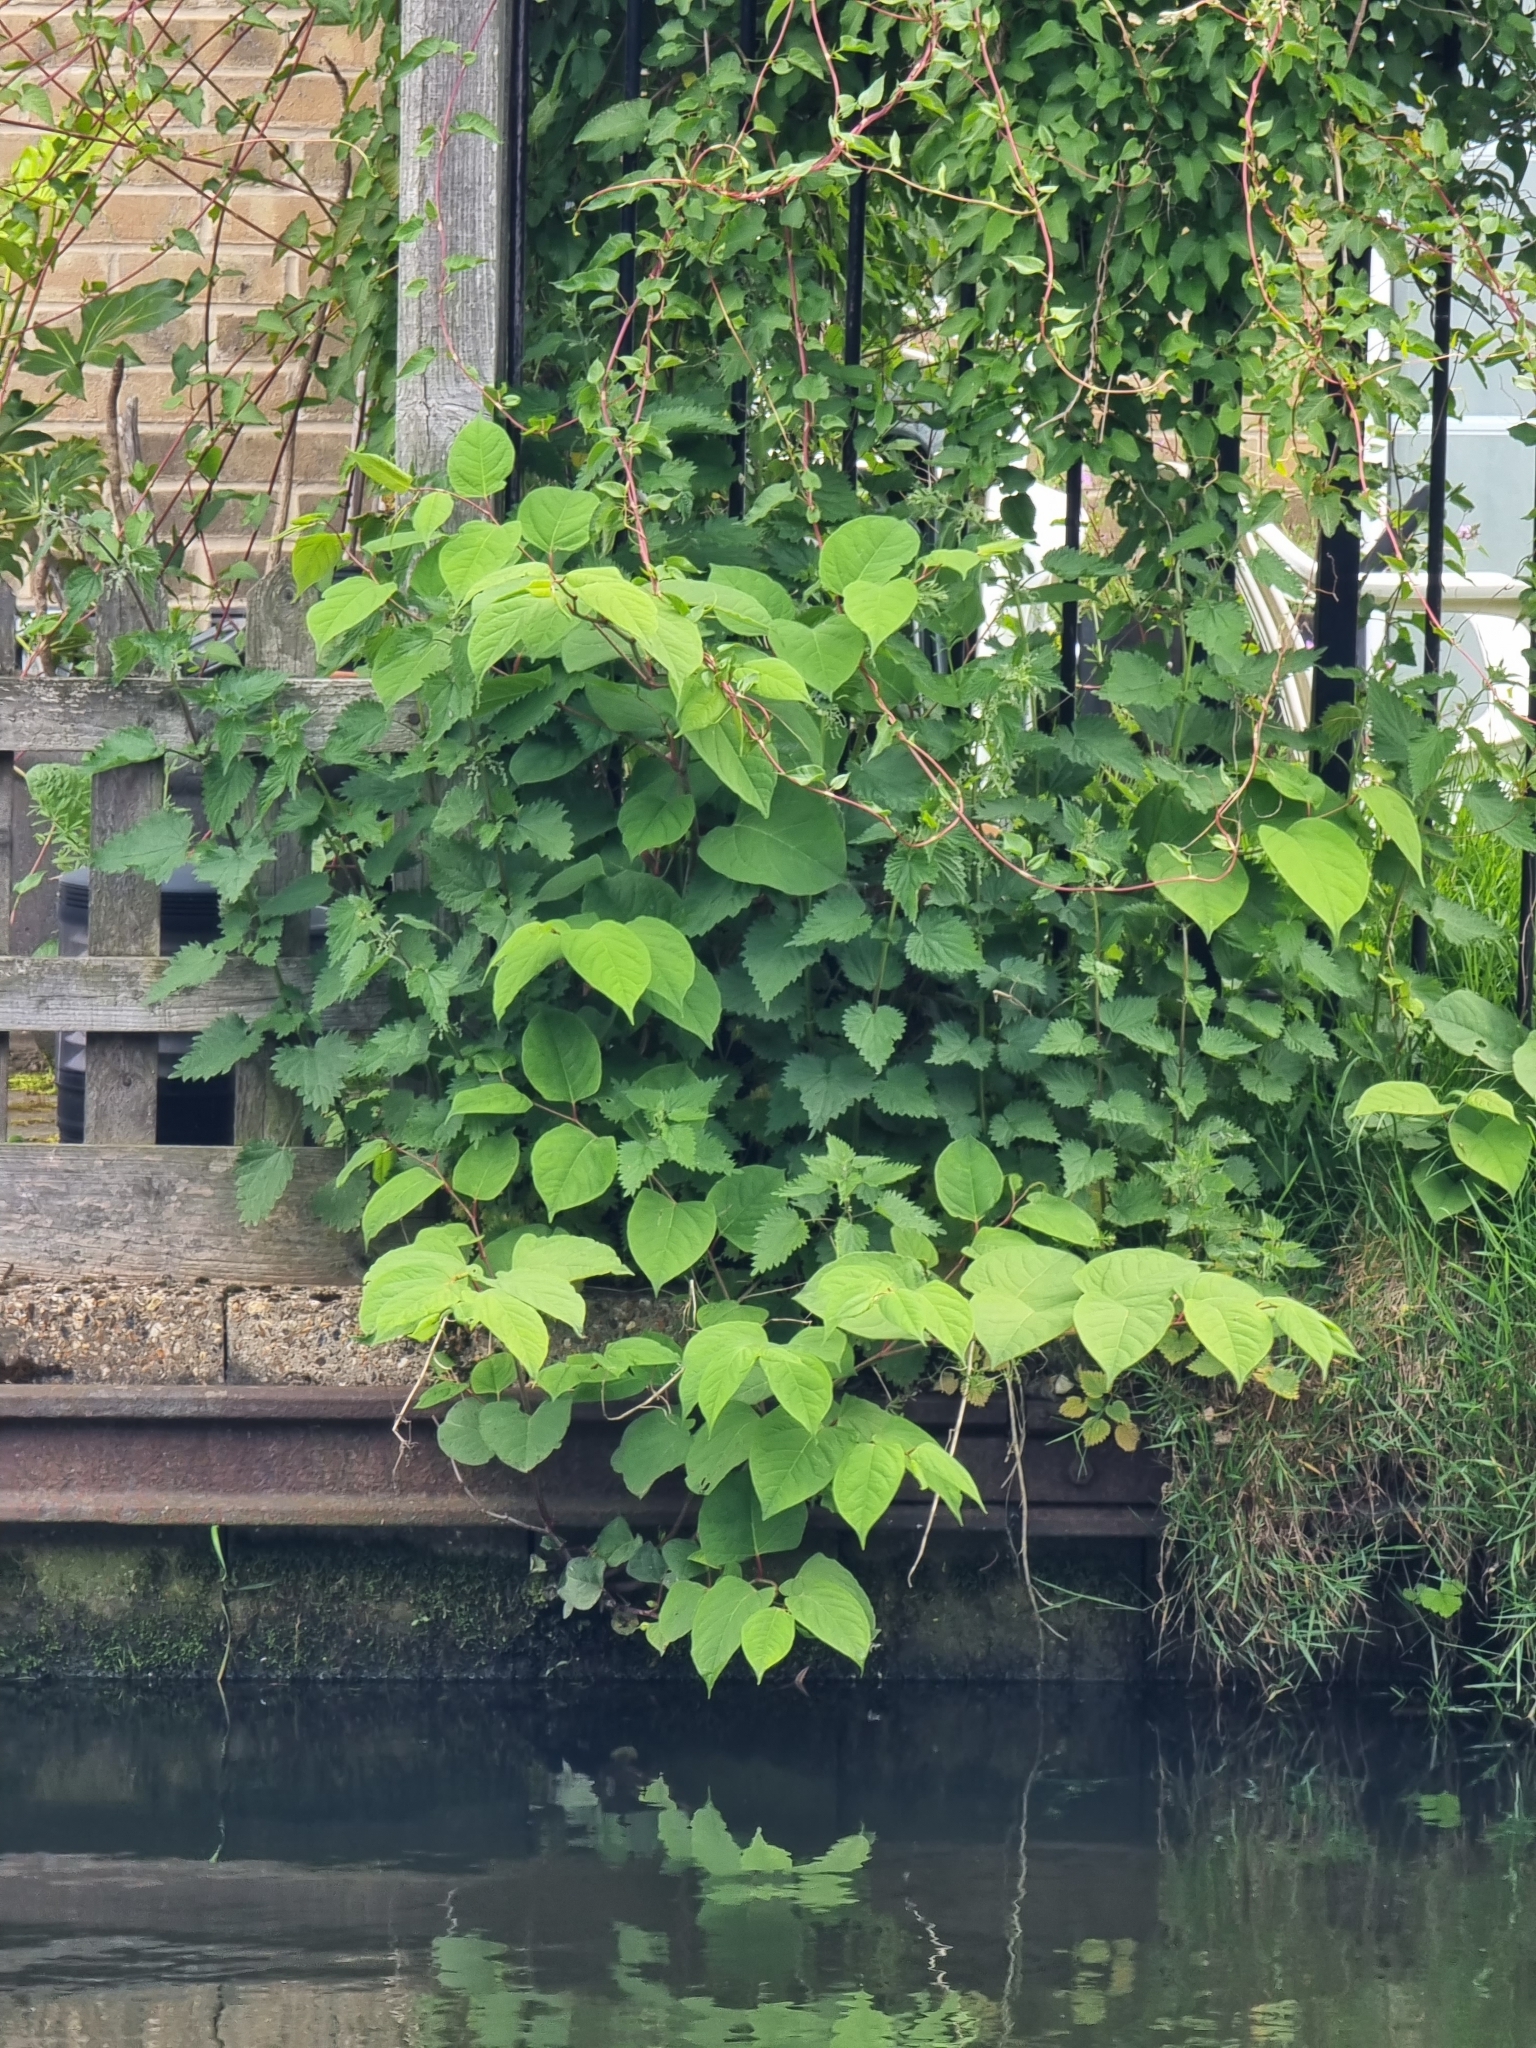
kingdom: Plantae
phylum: Tracheophyta
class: Magnoliopsida
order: Caryophyllales
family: Polygonaceae
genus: Reynoutria
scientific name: Reynoutria japonica
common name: Japanese knotweed
